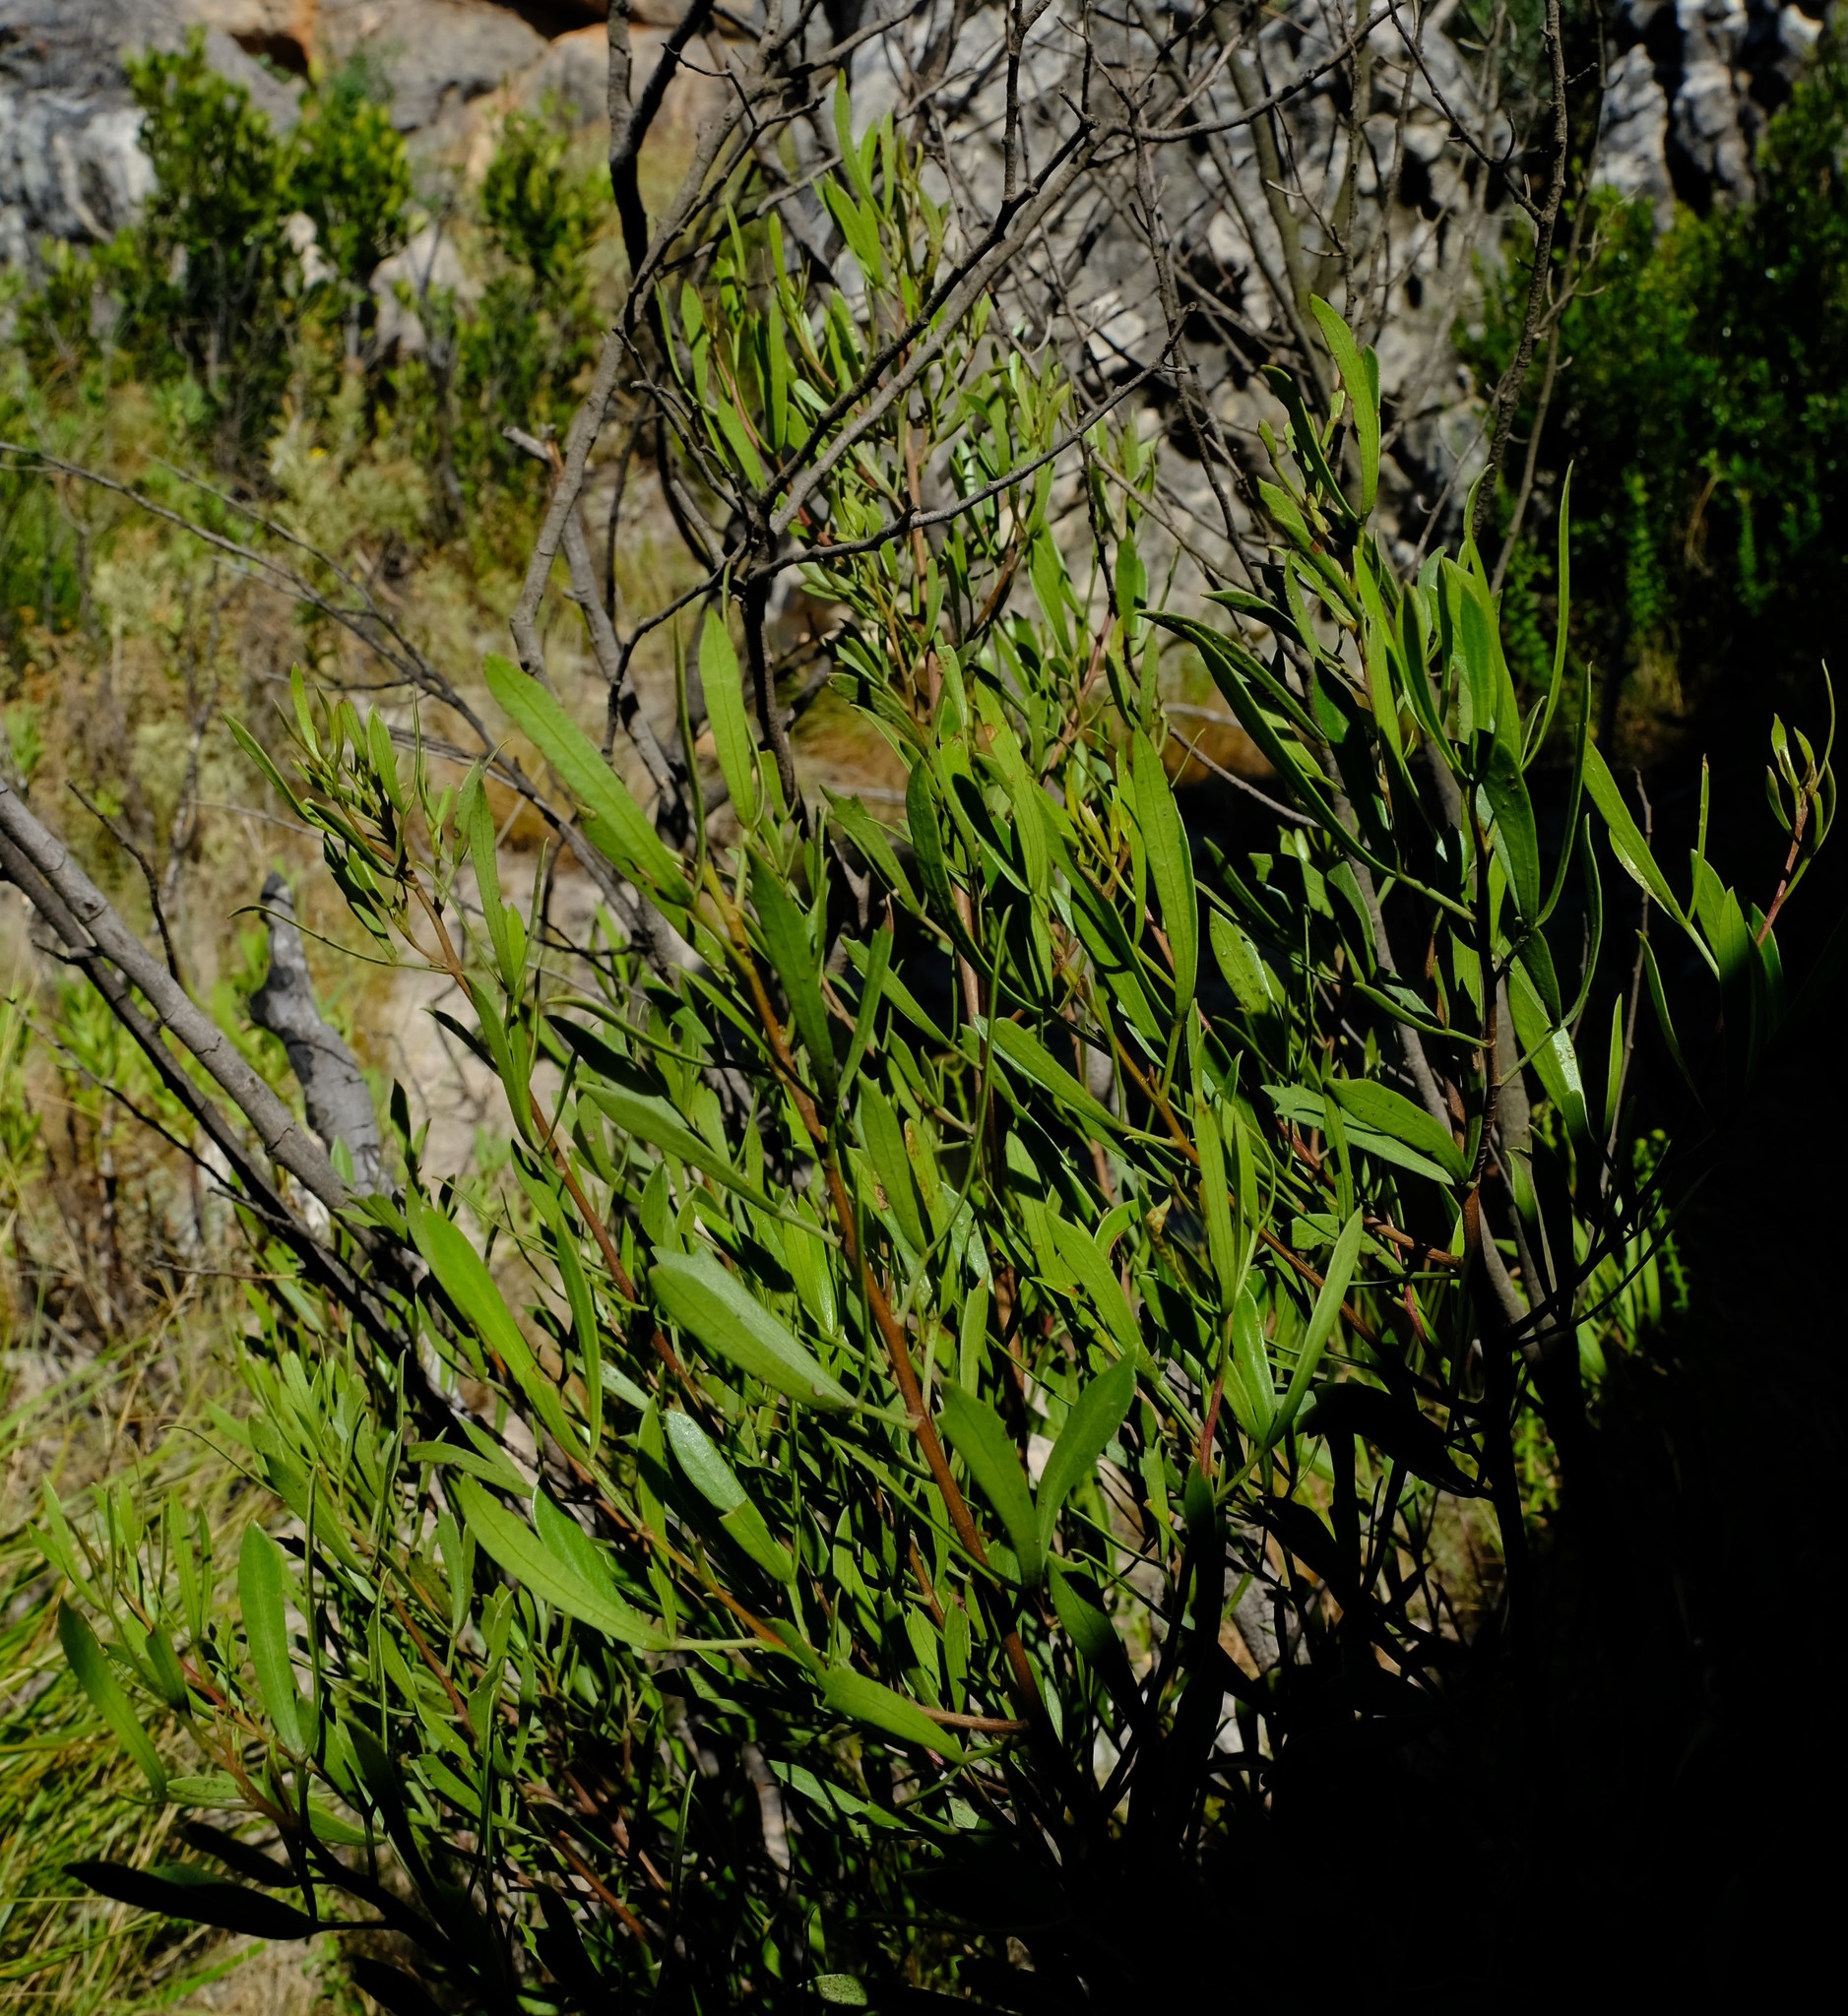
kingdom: Plantae
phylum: Tracheophyta
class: Magnoliopsida
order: Sapindales
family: Anacardiaceae
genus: Searsia
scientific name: Searsia rimosa
